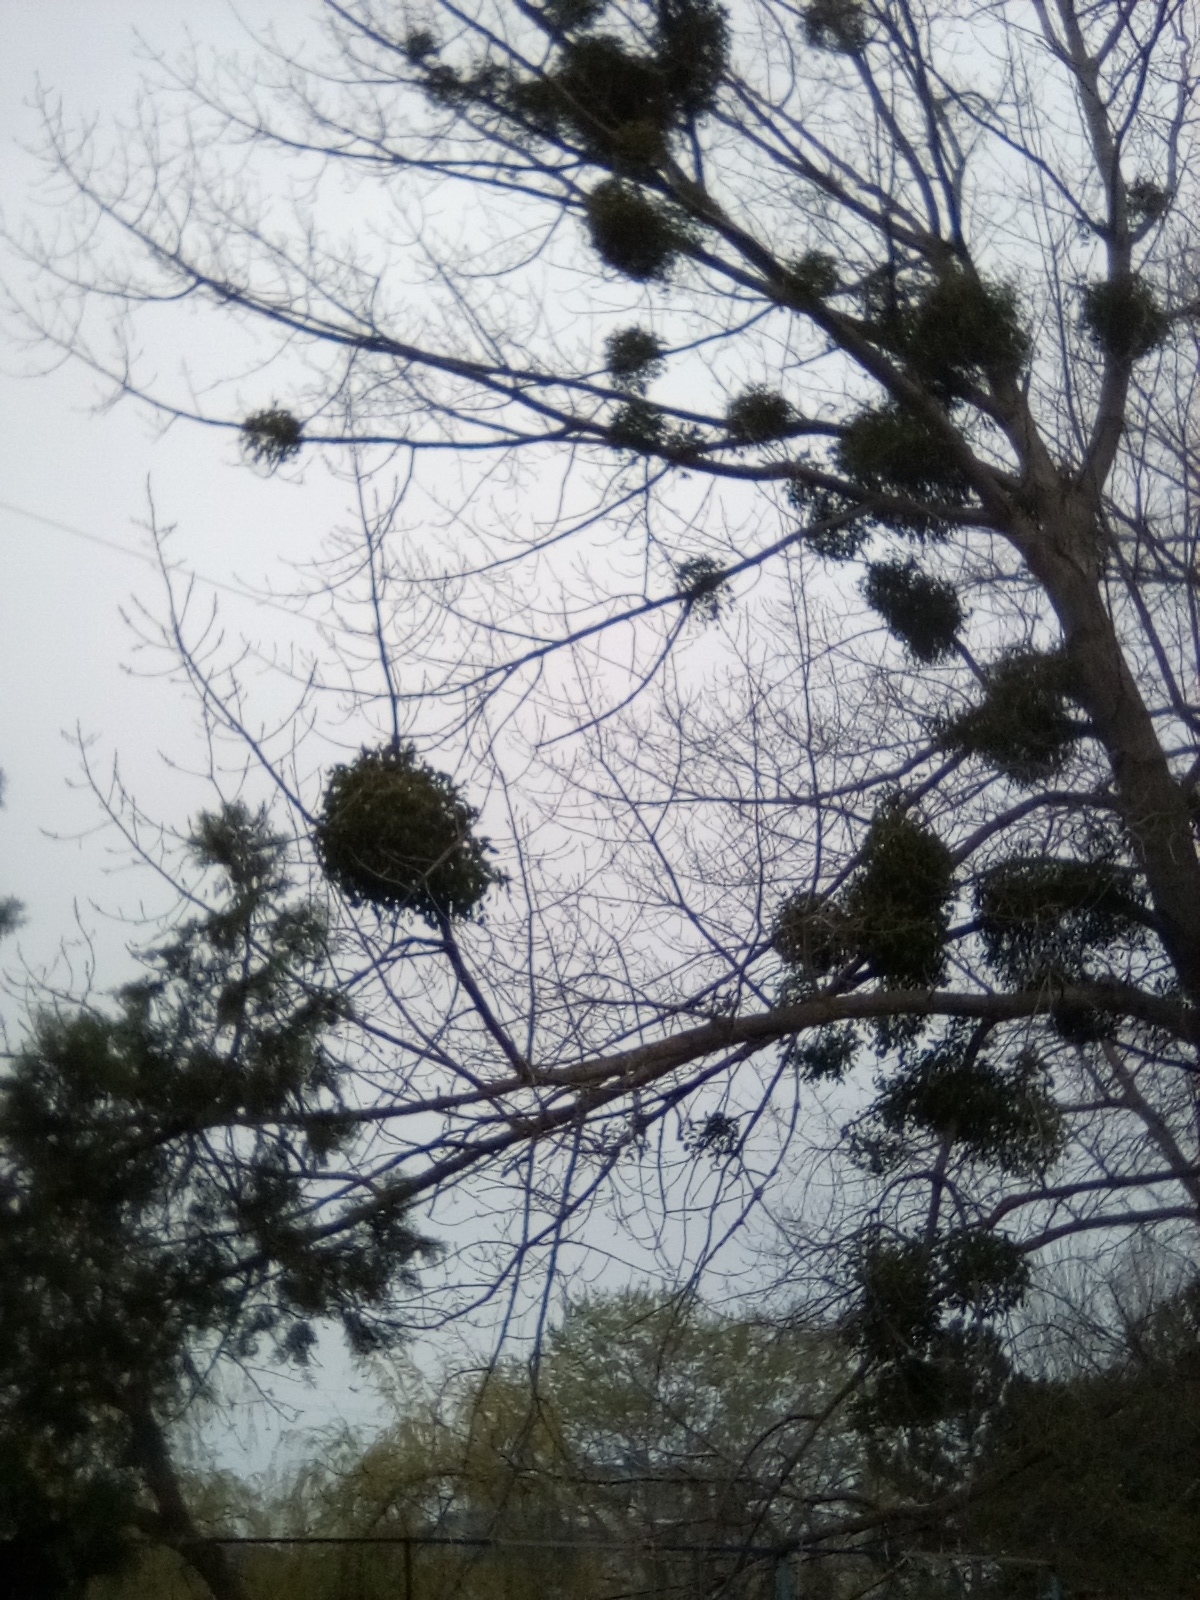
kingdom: Plantae
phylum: Tracheophyta
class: Magnoliopsida
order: Santalales
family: Viscaceae
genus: Viscum
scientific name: Viscum album
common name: Mistletoe
